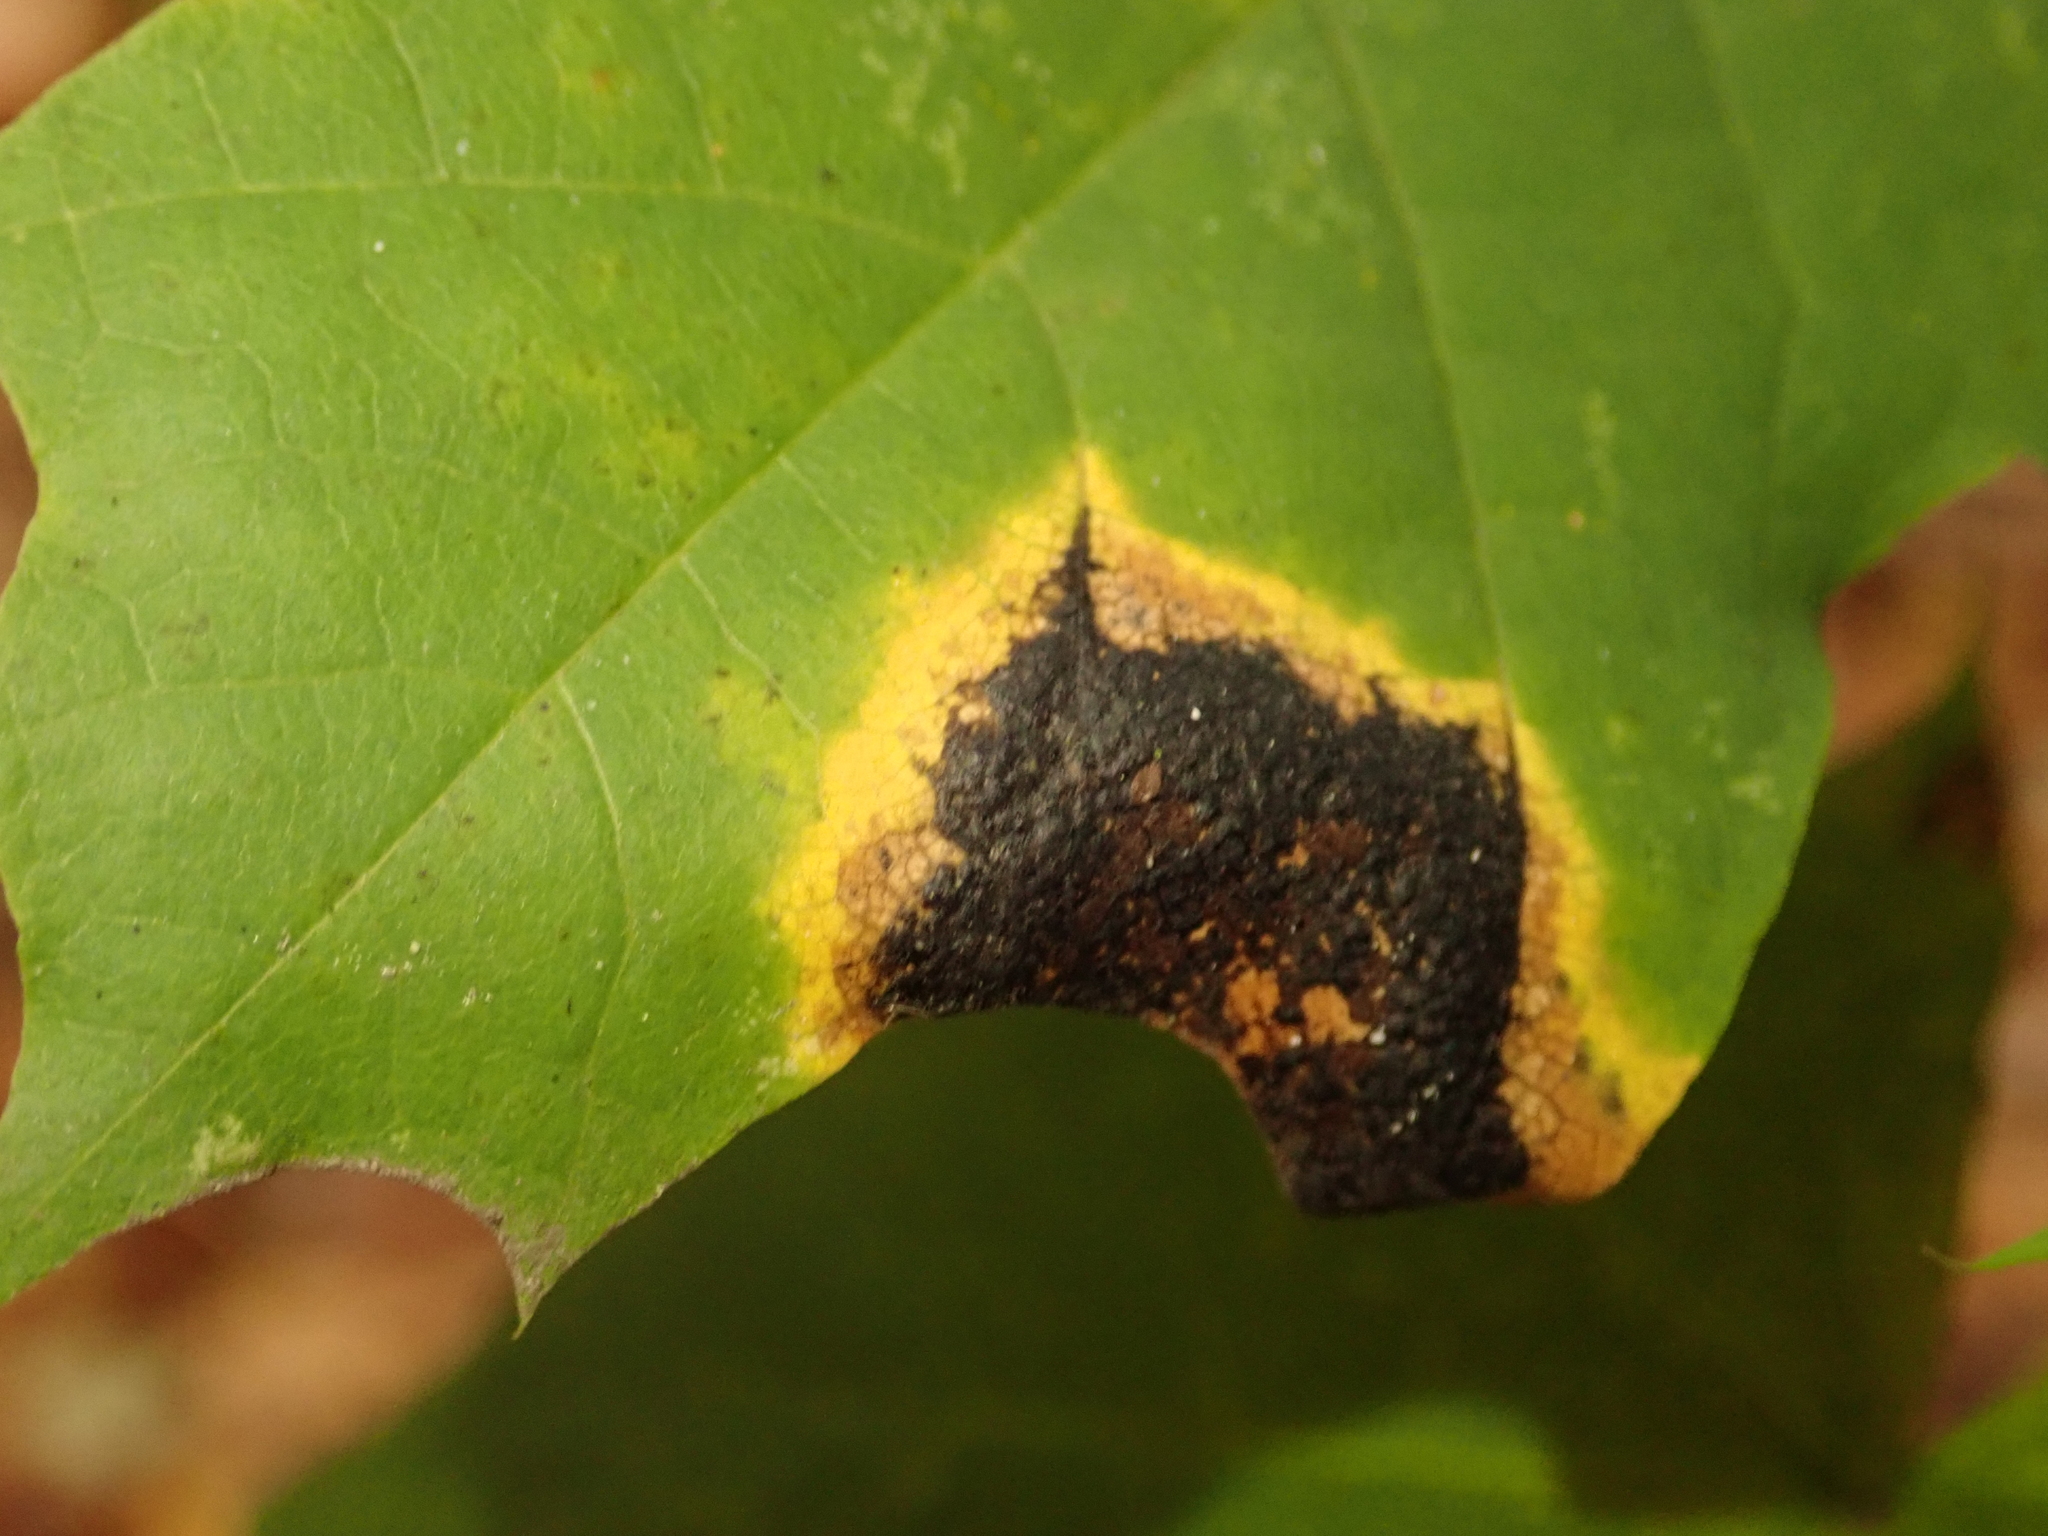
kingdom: Fungi
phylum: Ascomycota
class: Leotiomycetes
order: Rhytismatales
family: Rhytismataceae
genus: Rhytisma
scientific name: Rhytisma acerinum
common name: European tar spot
